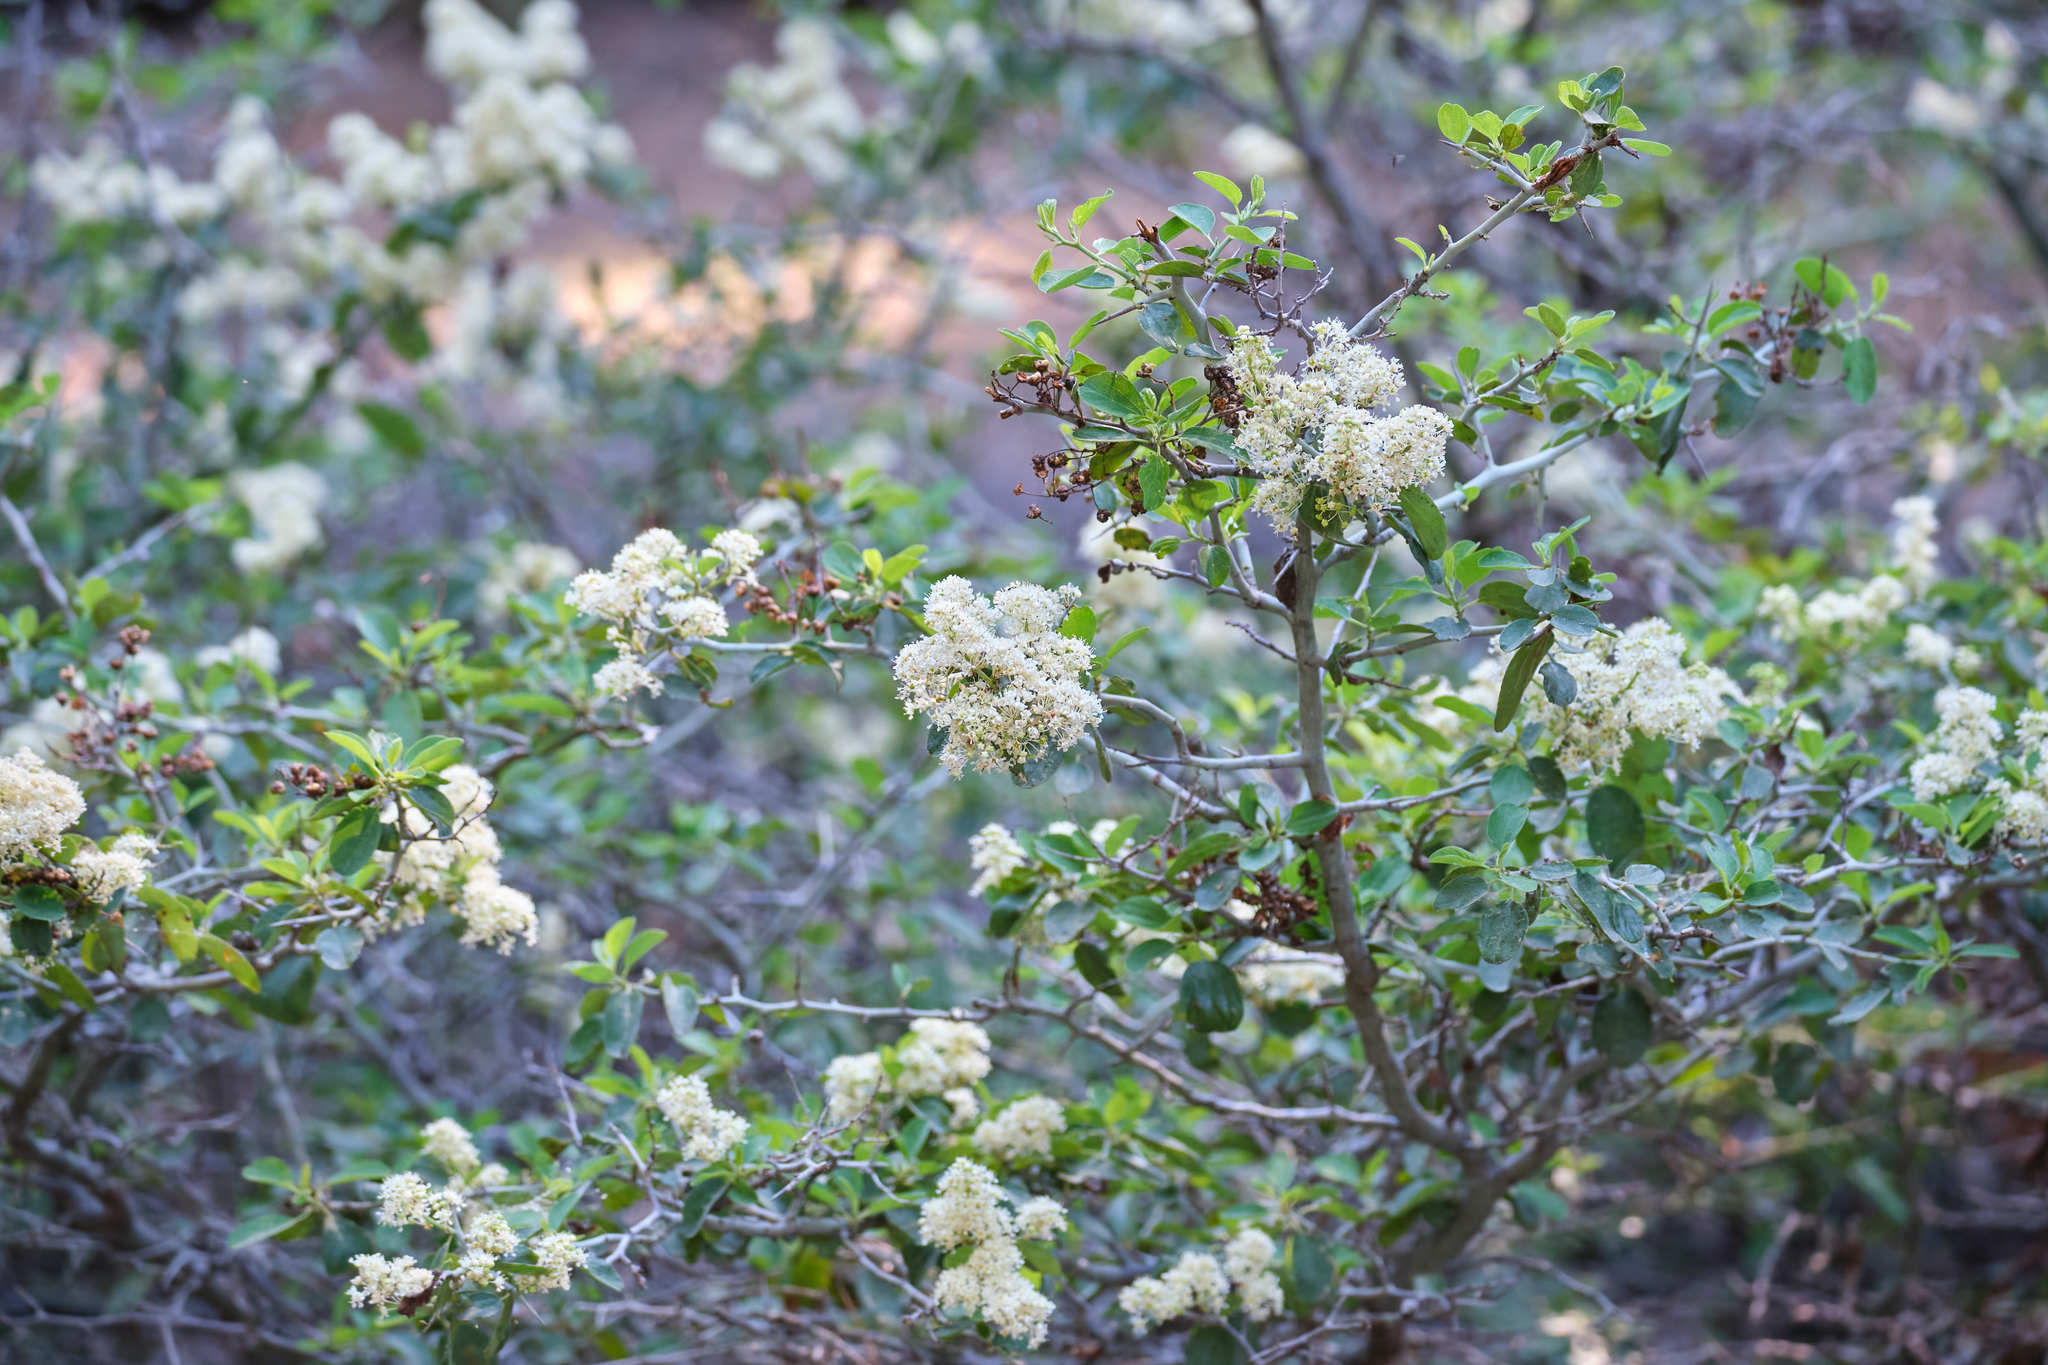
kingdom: Plantae
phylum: Tracheophyta
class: Magnoliopsida
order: Rosales
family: Rhamnaceae
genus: Ceanothus
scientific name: Ceanothus cordulatus
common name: Mountain whitethorn
